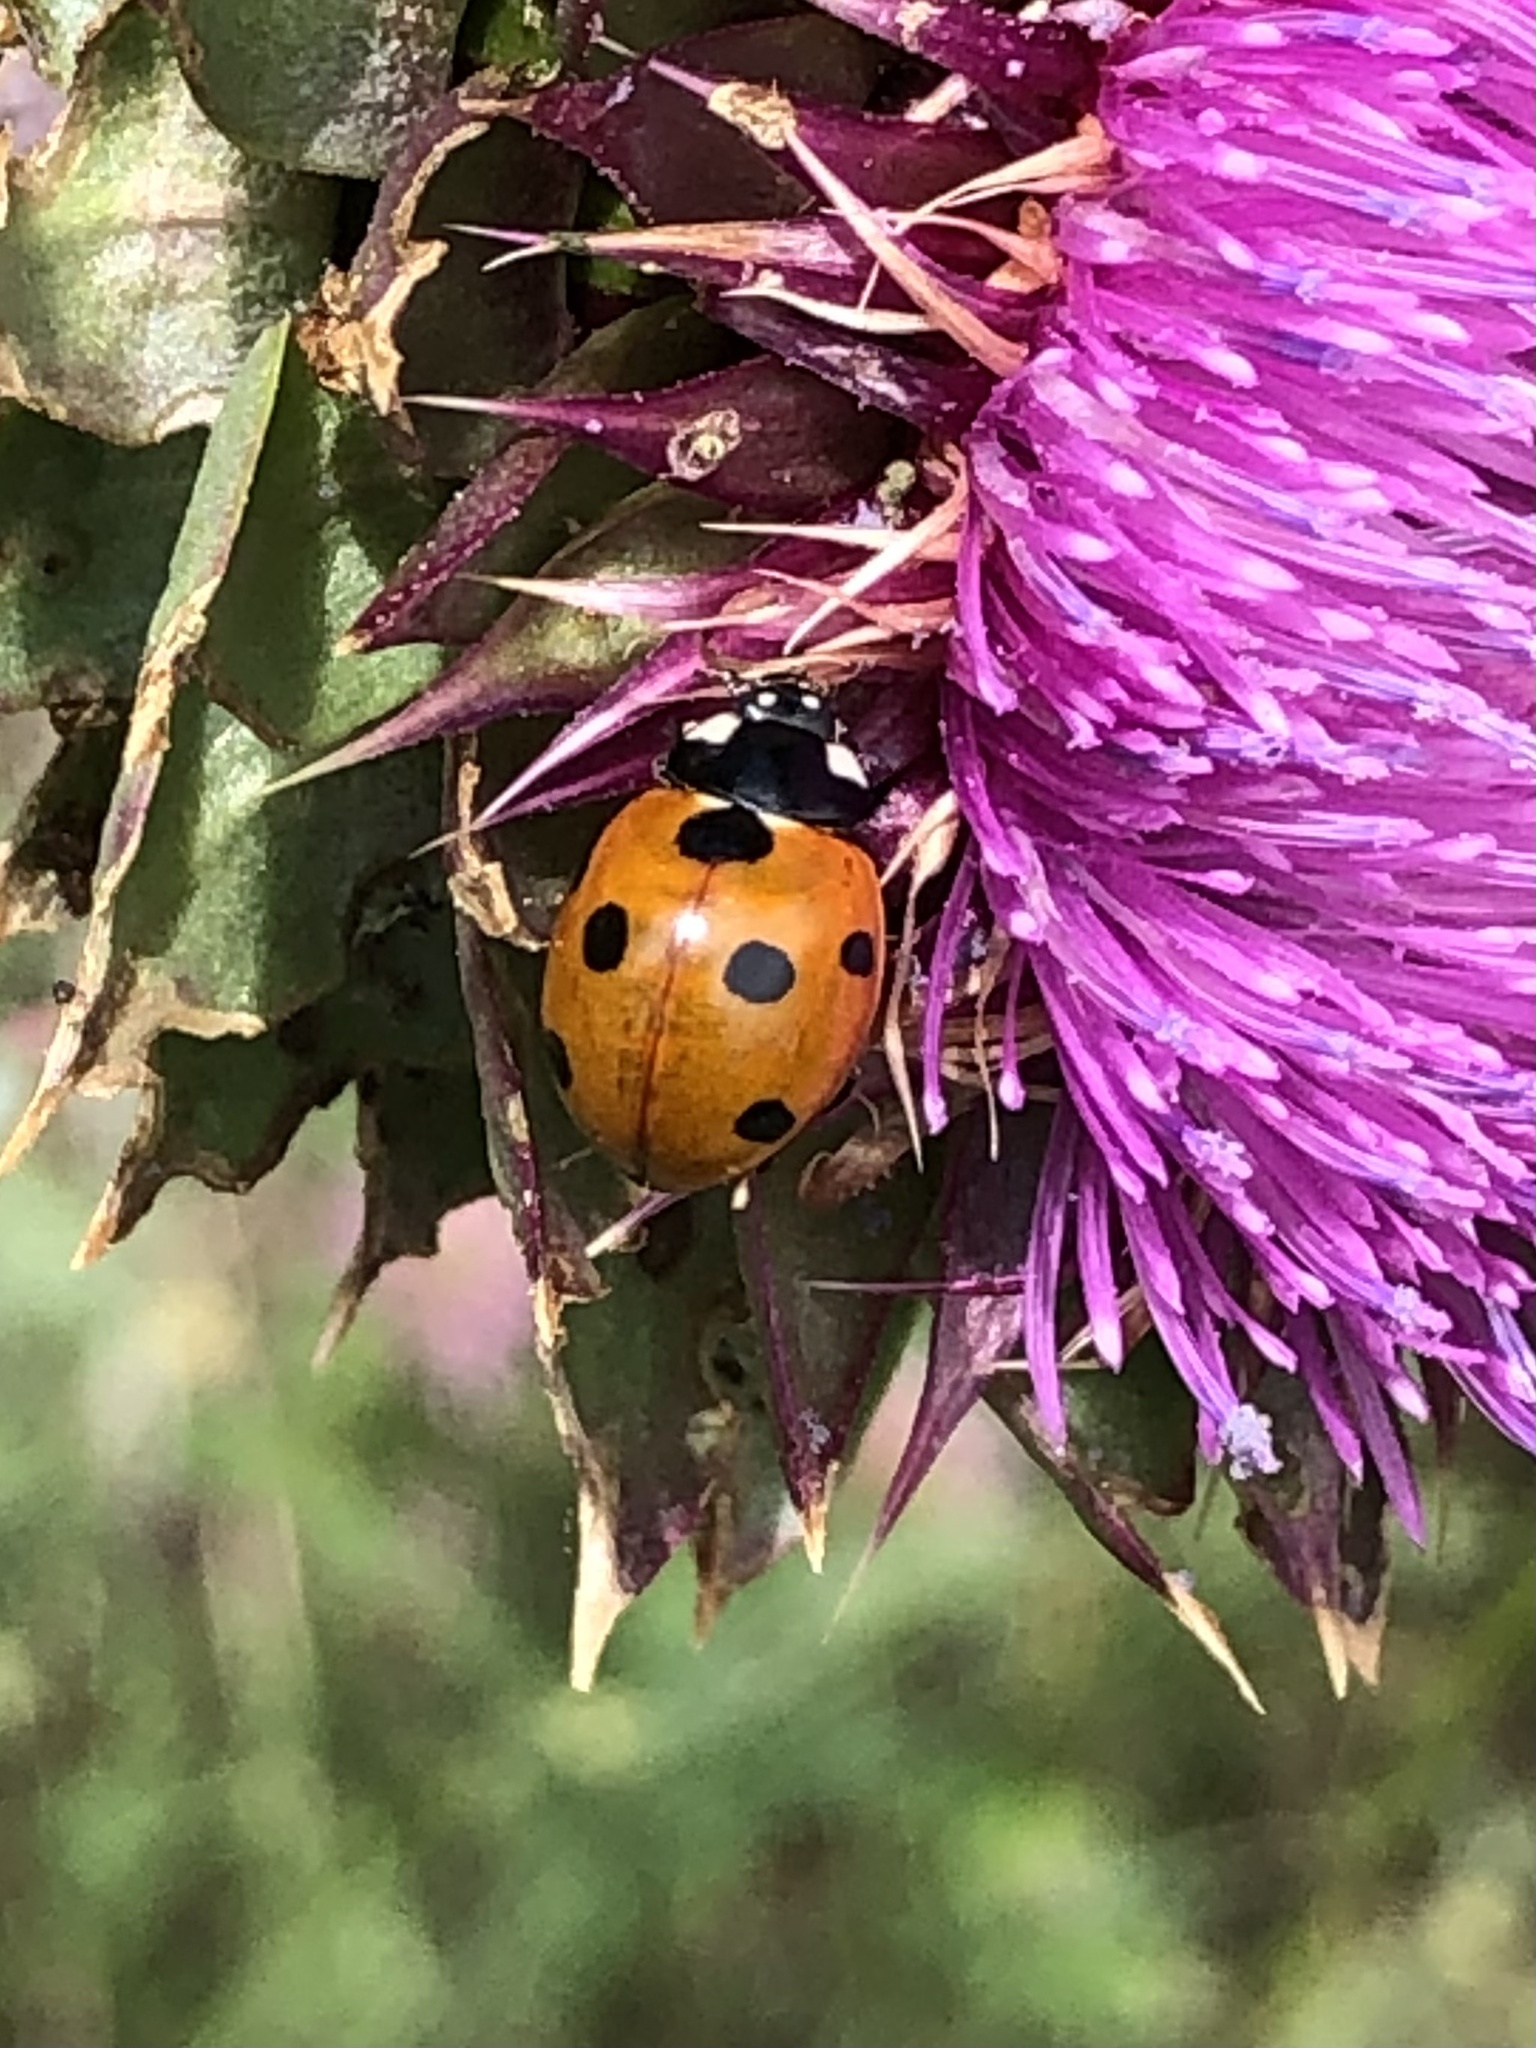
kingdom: Animalia
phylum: Arthropoda
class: Insecta
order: Coleoptera
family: Coccinellidae
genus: Coccinella
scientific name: Coccinella septempunctata
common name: Sevenspotted lady beetle
